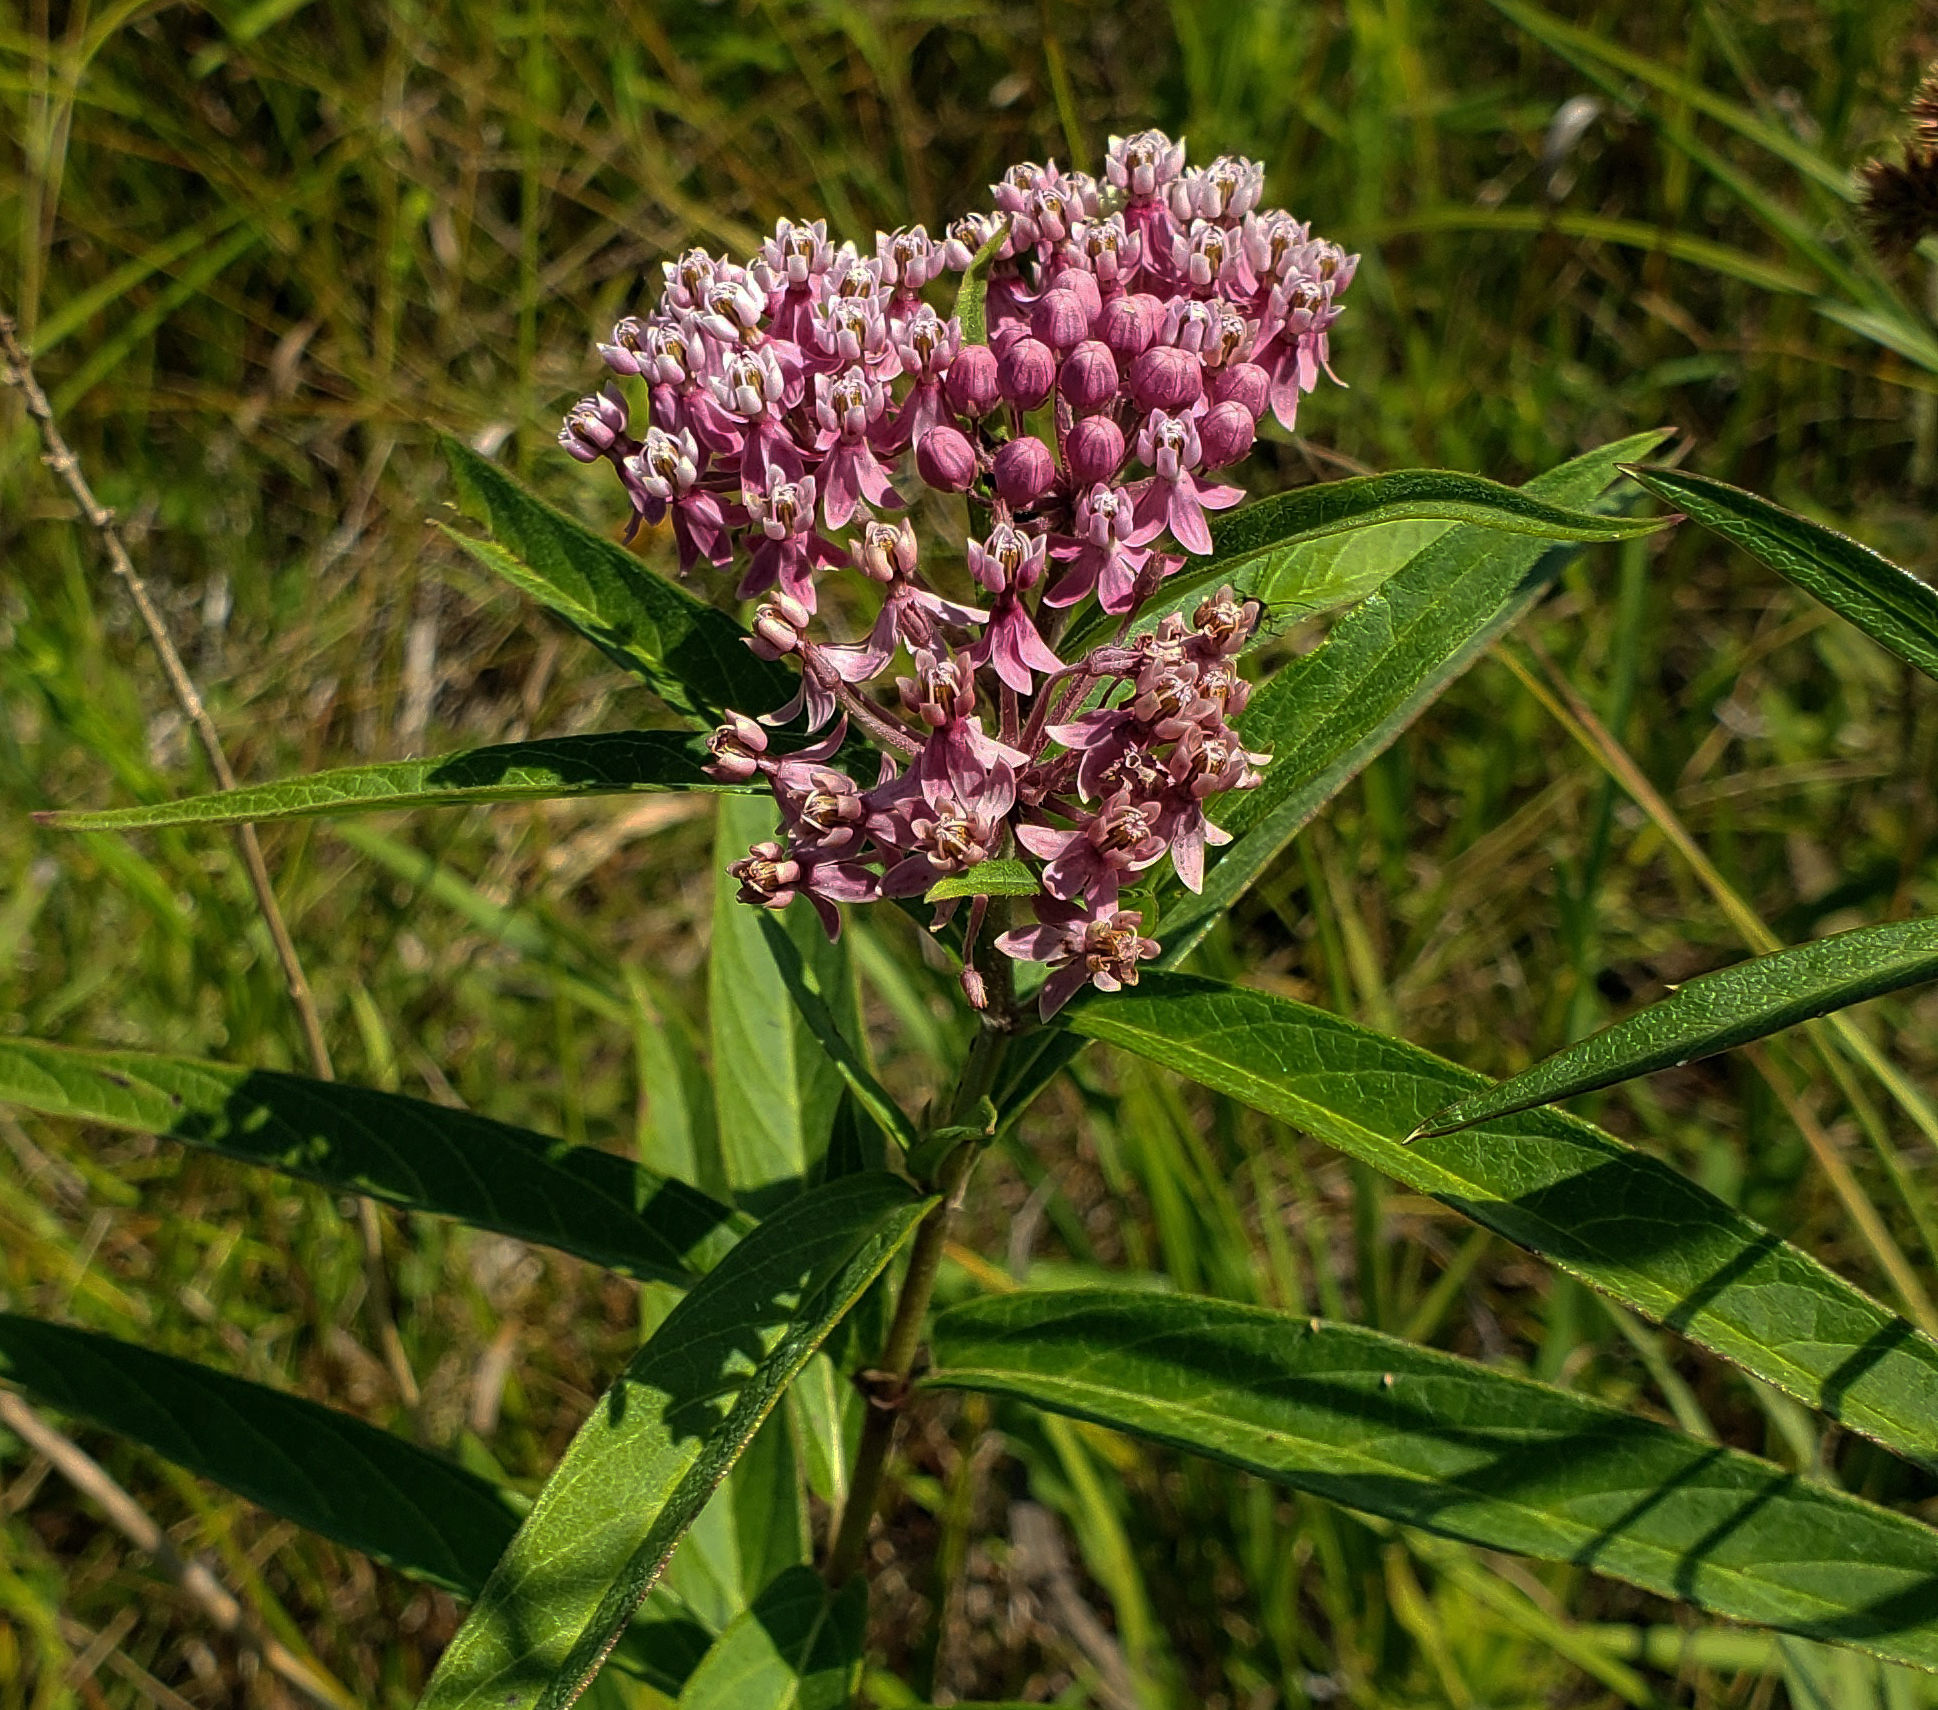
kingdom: Plantae
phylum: Tracheophyta
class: Magnoliopsida
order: Gentianales
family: Apocynaceae
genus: Asclepias
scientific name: Asclepias incarnata
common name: Swamp milkweed
